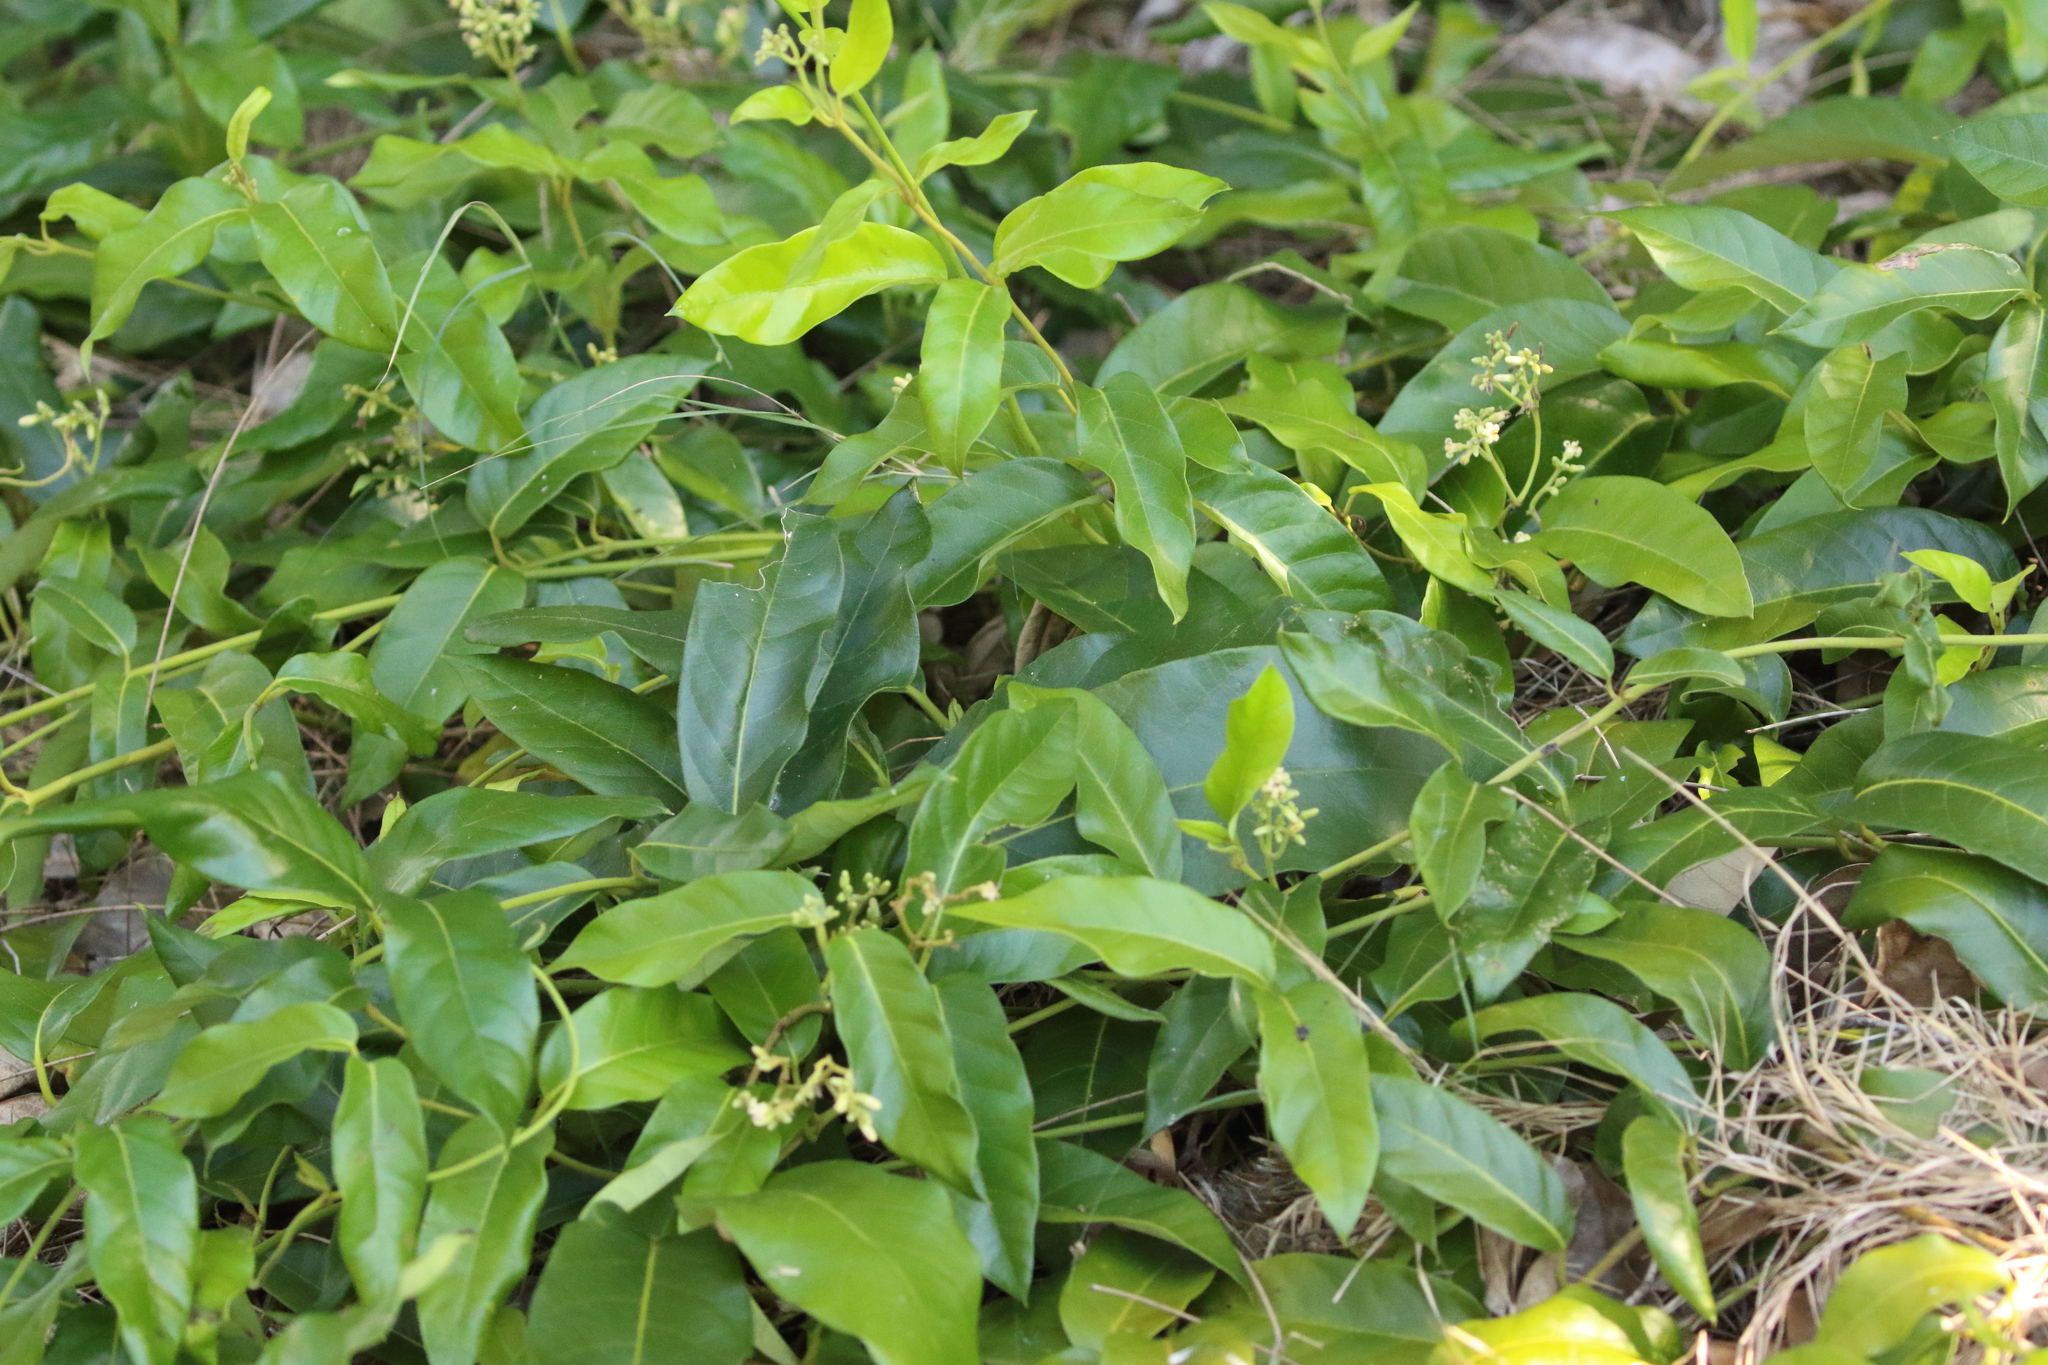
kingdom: Plantae
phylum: Tracheophyta
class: Magnoliopsida
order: Gentianales
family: Apocynaceae
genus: Parsonsia
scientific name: Parsonsia straminea
